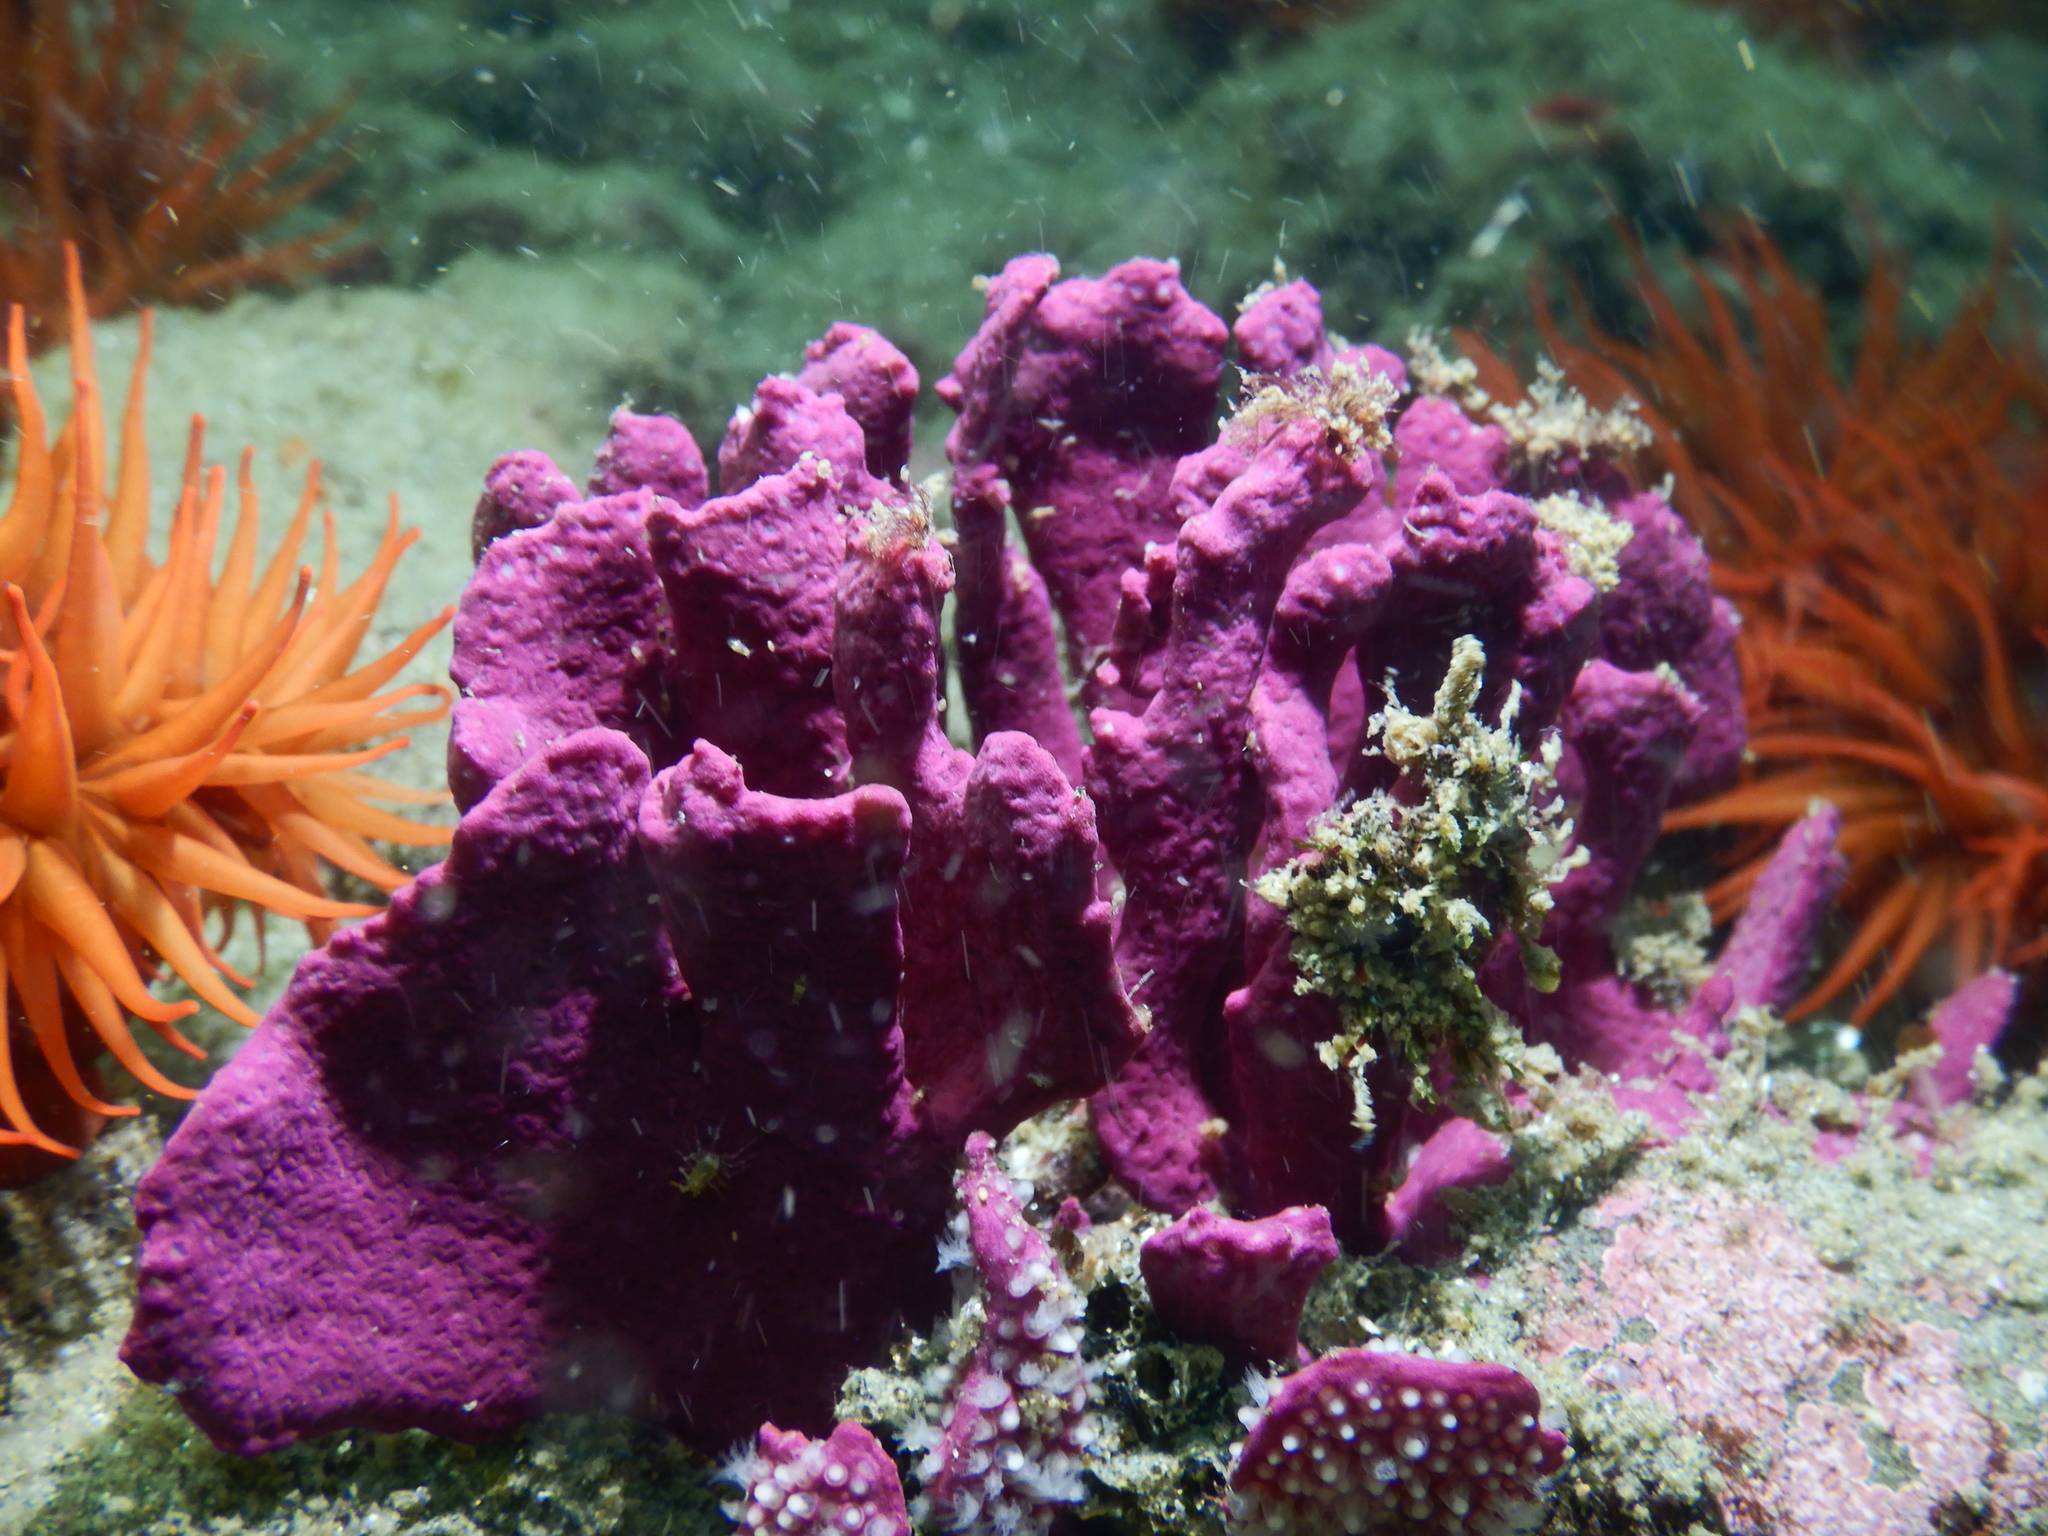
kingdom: Animalia
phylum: Cnidaria
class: Anthozoa
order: Malacalcyonacea
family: Gorgoniidae
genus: Phycogorgia
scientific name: Phycogorgia fucata
